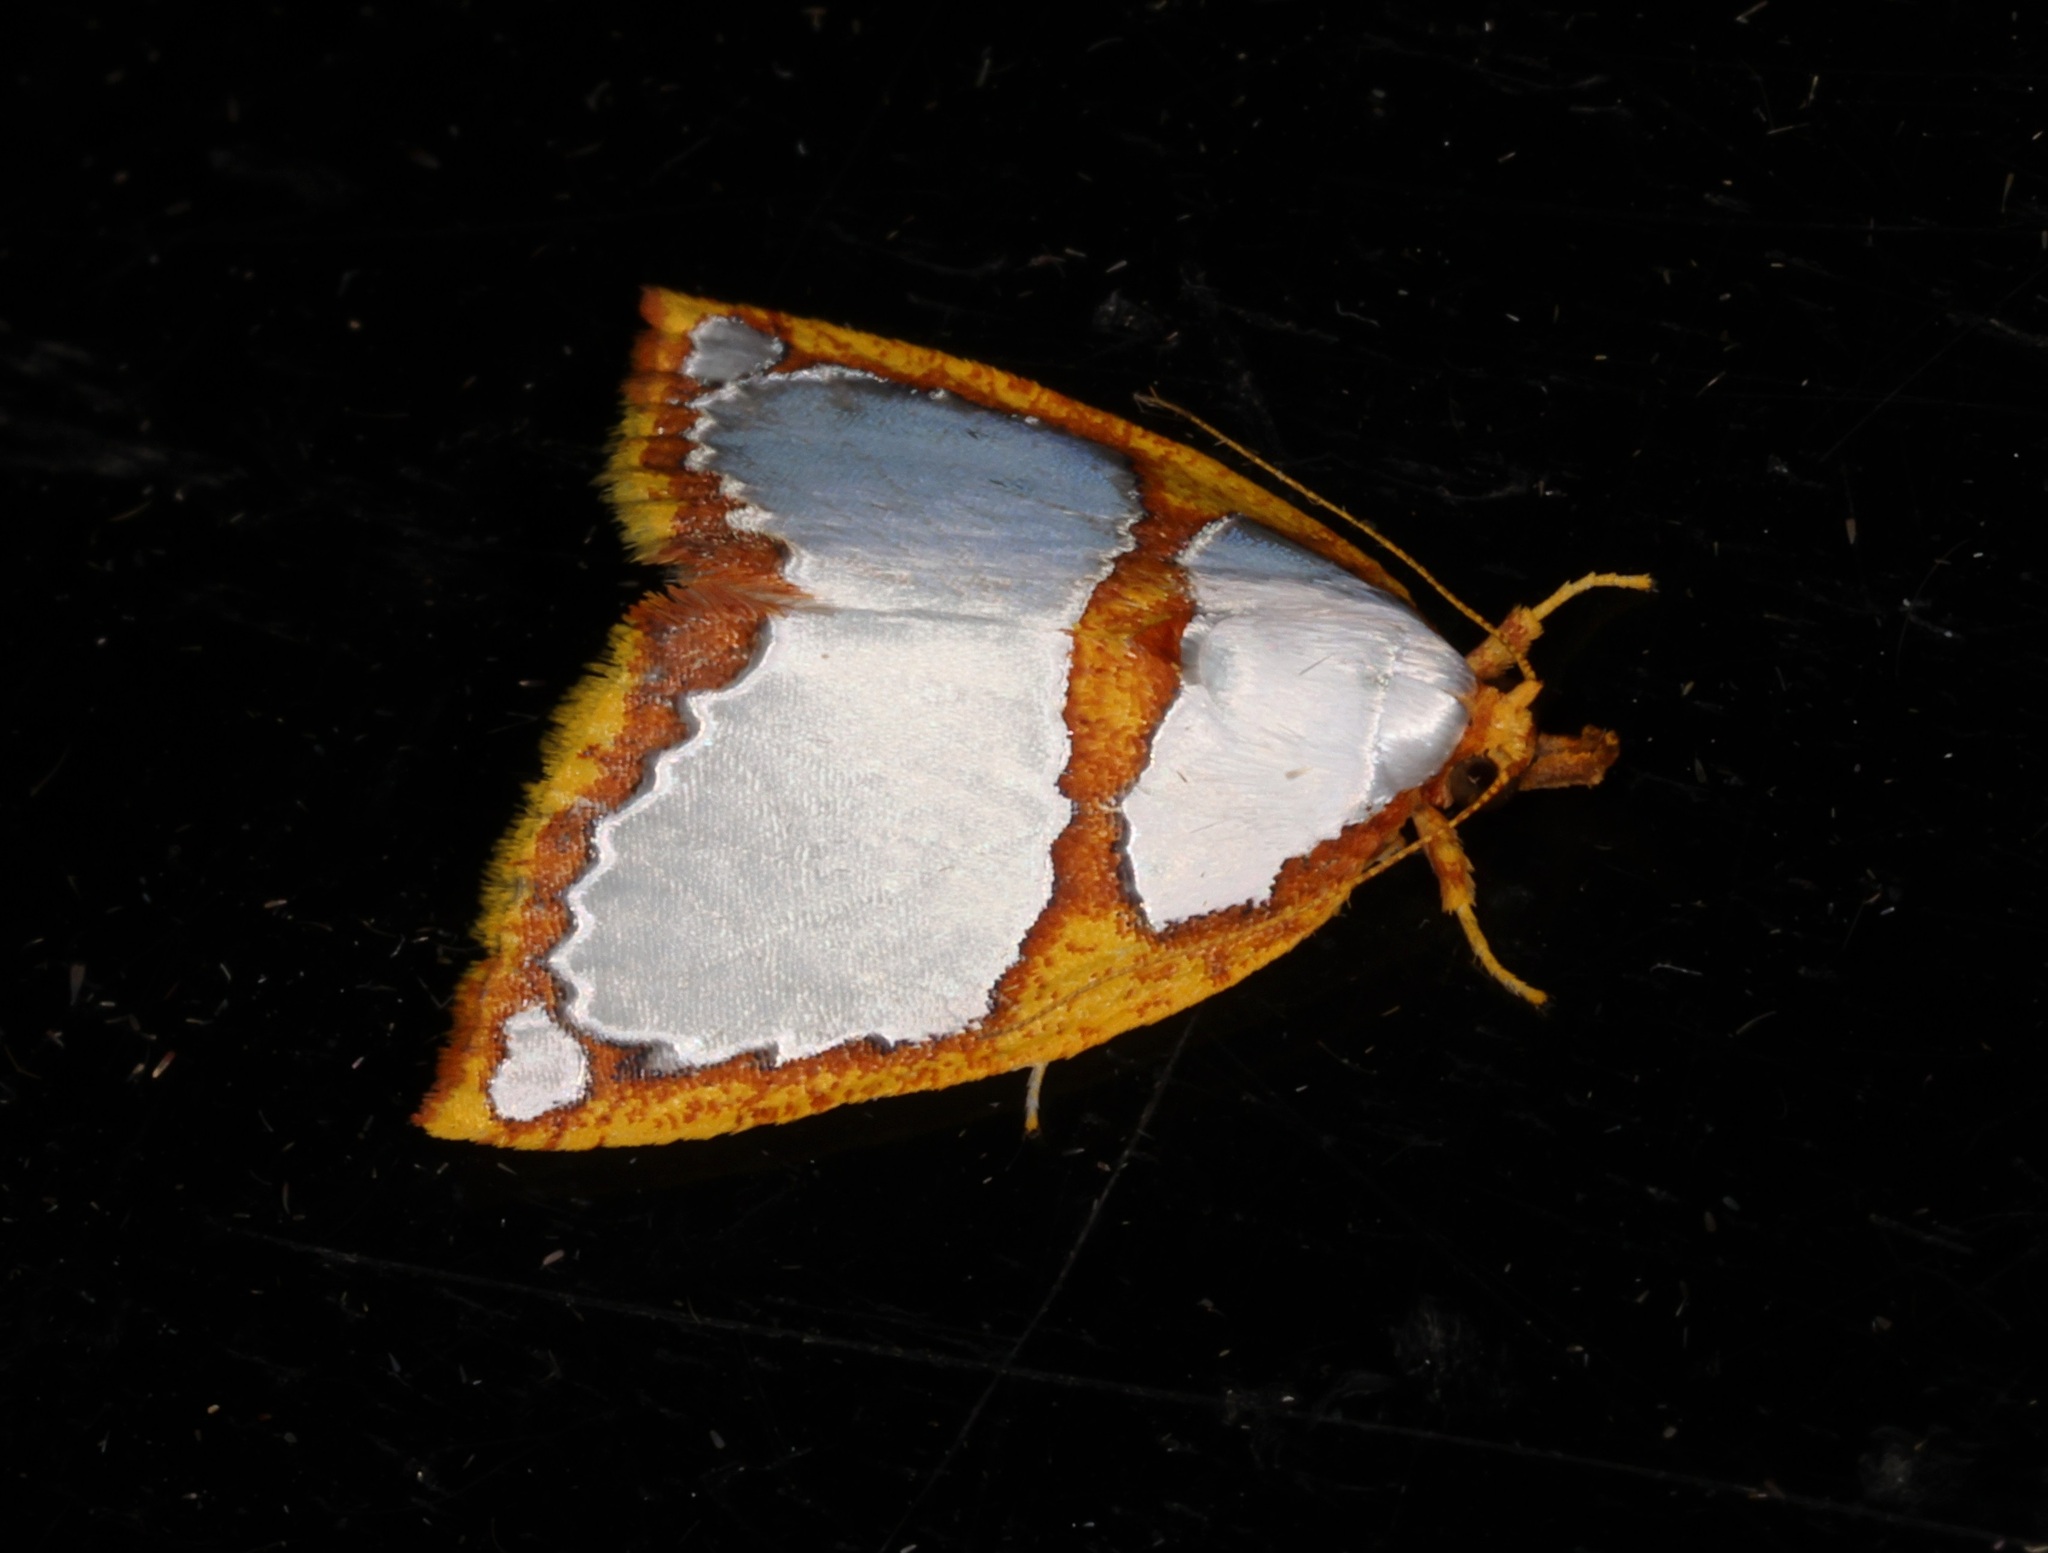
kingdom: Animalia
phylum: Arthropoda
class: Insecta
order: Lepidoptera
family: Nolidae
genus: Titulcia
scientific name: Titulcia confictella
